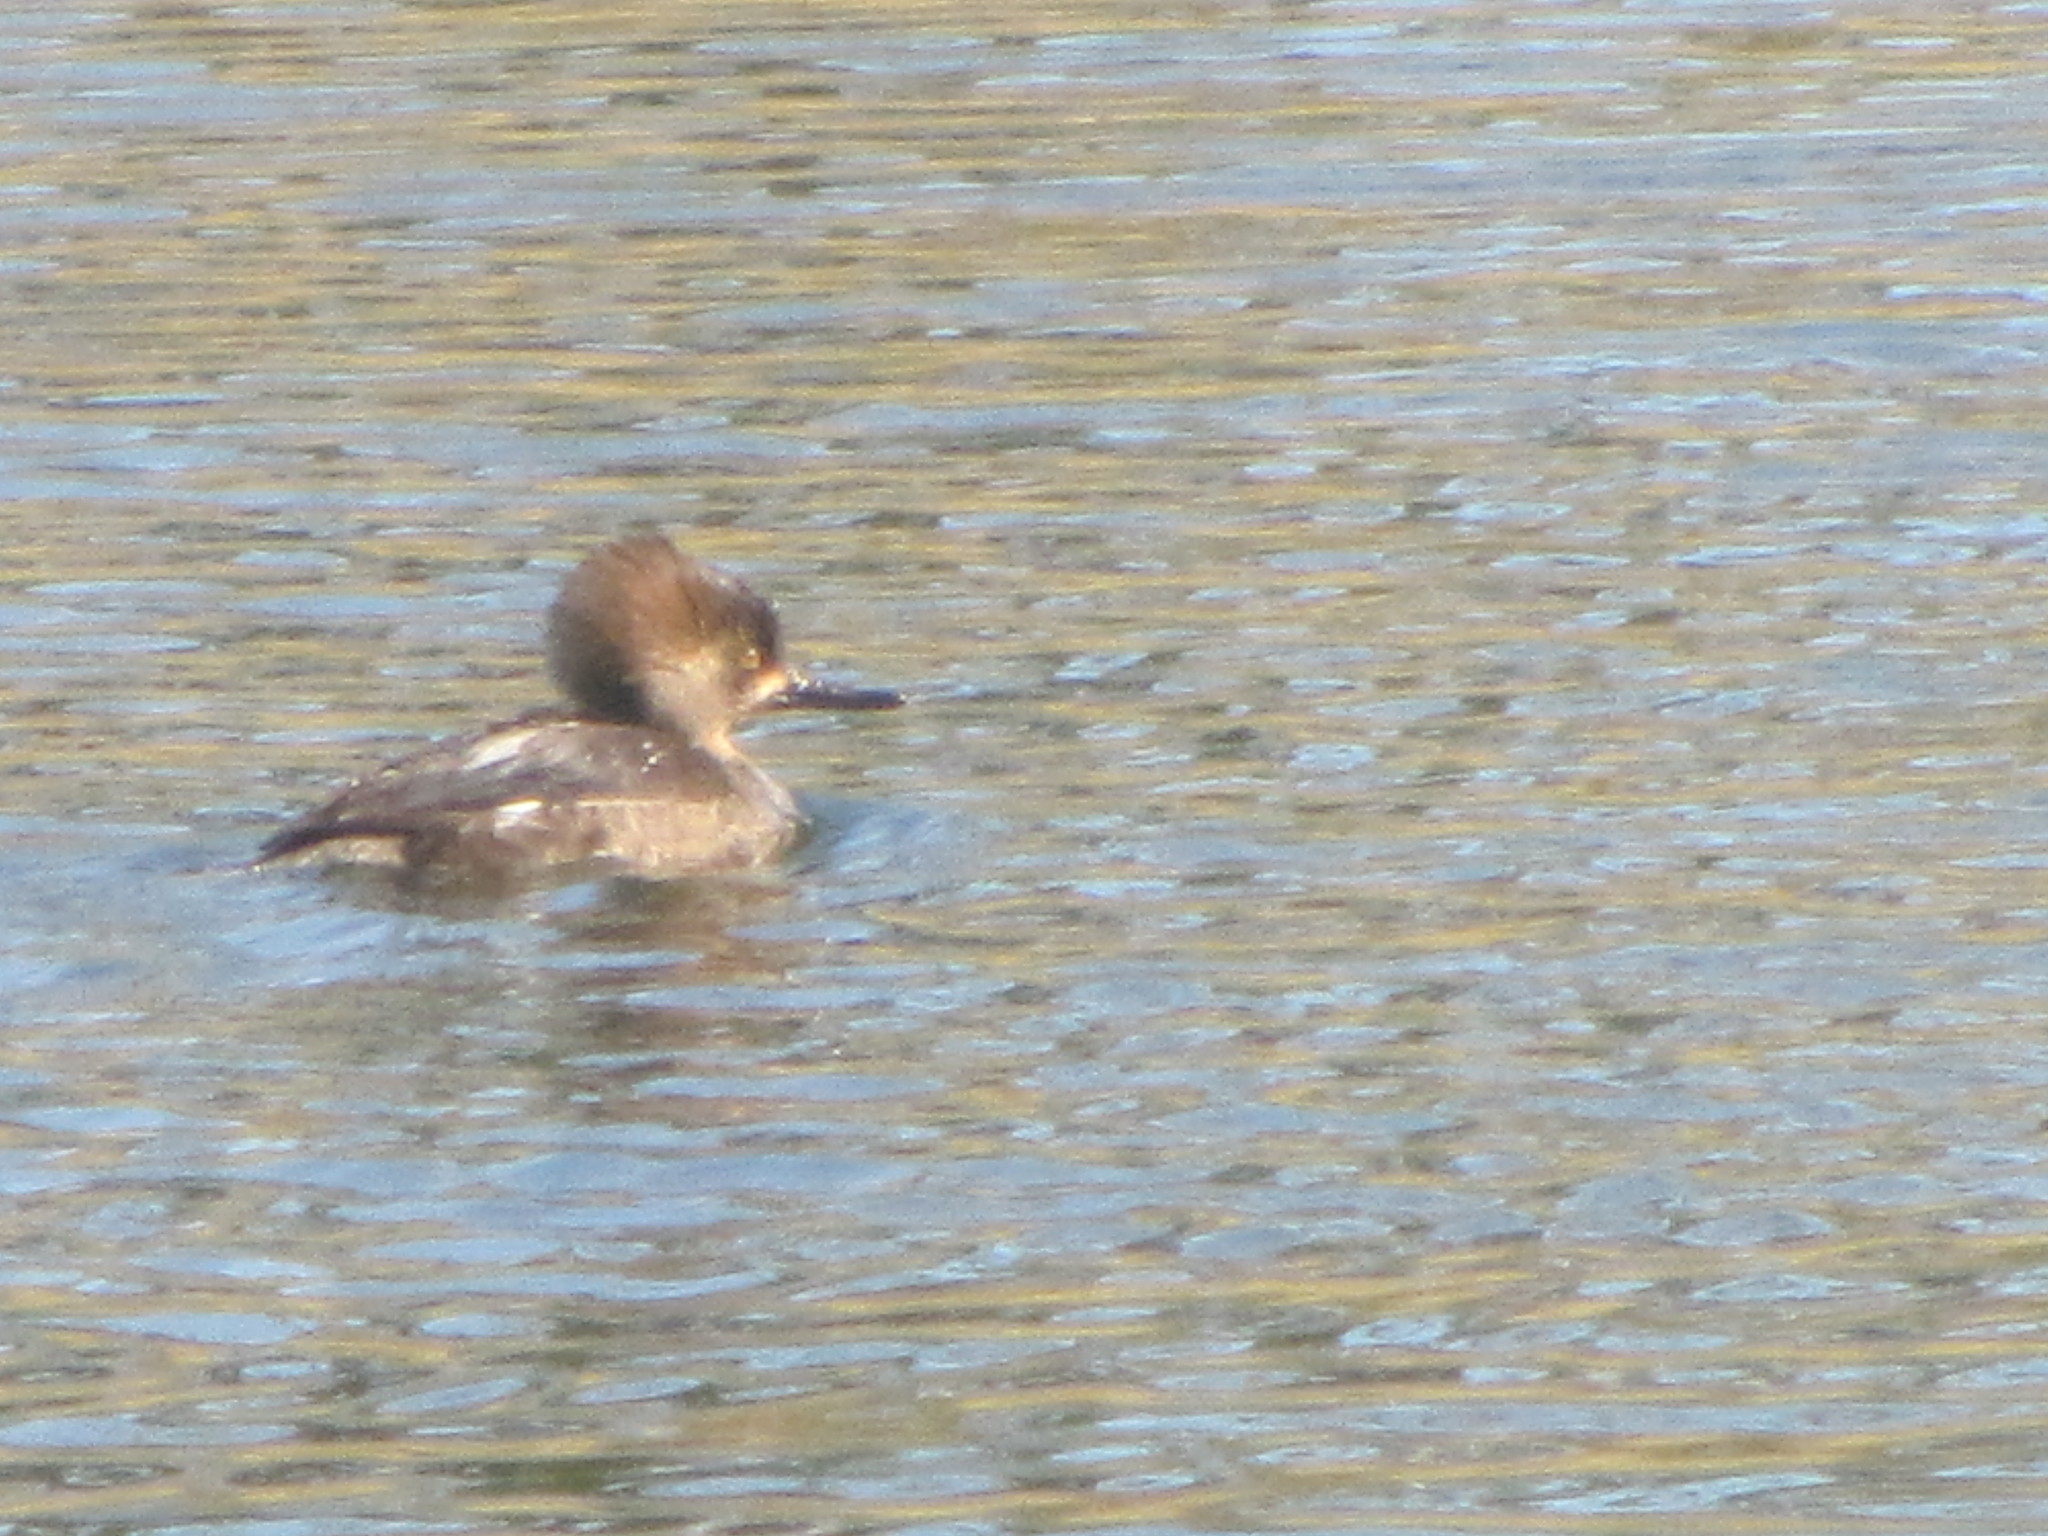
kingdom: Animalia
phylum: Chordata
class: Aves
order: Anseriformes
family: Anatidae
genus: Lophodytes
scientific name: Lophodytes cucullatus
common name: Hooded merganser
